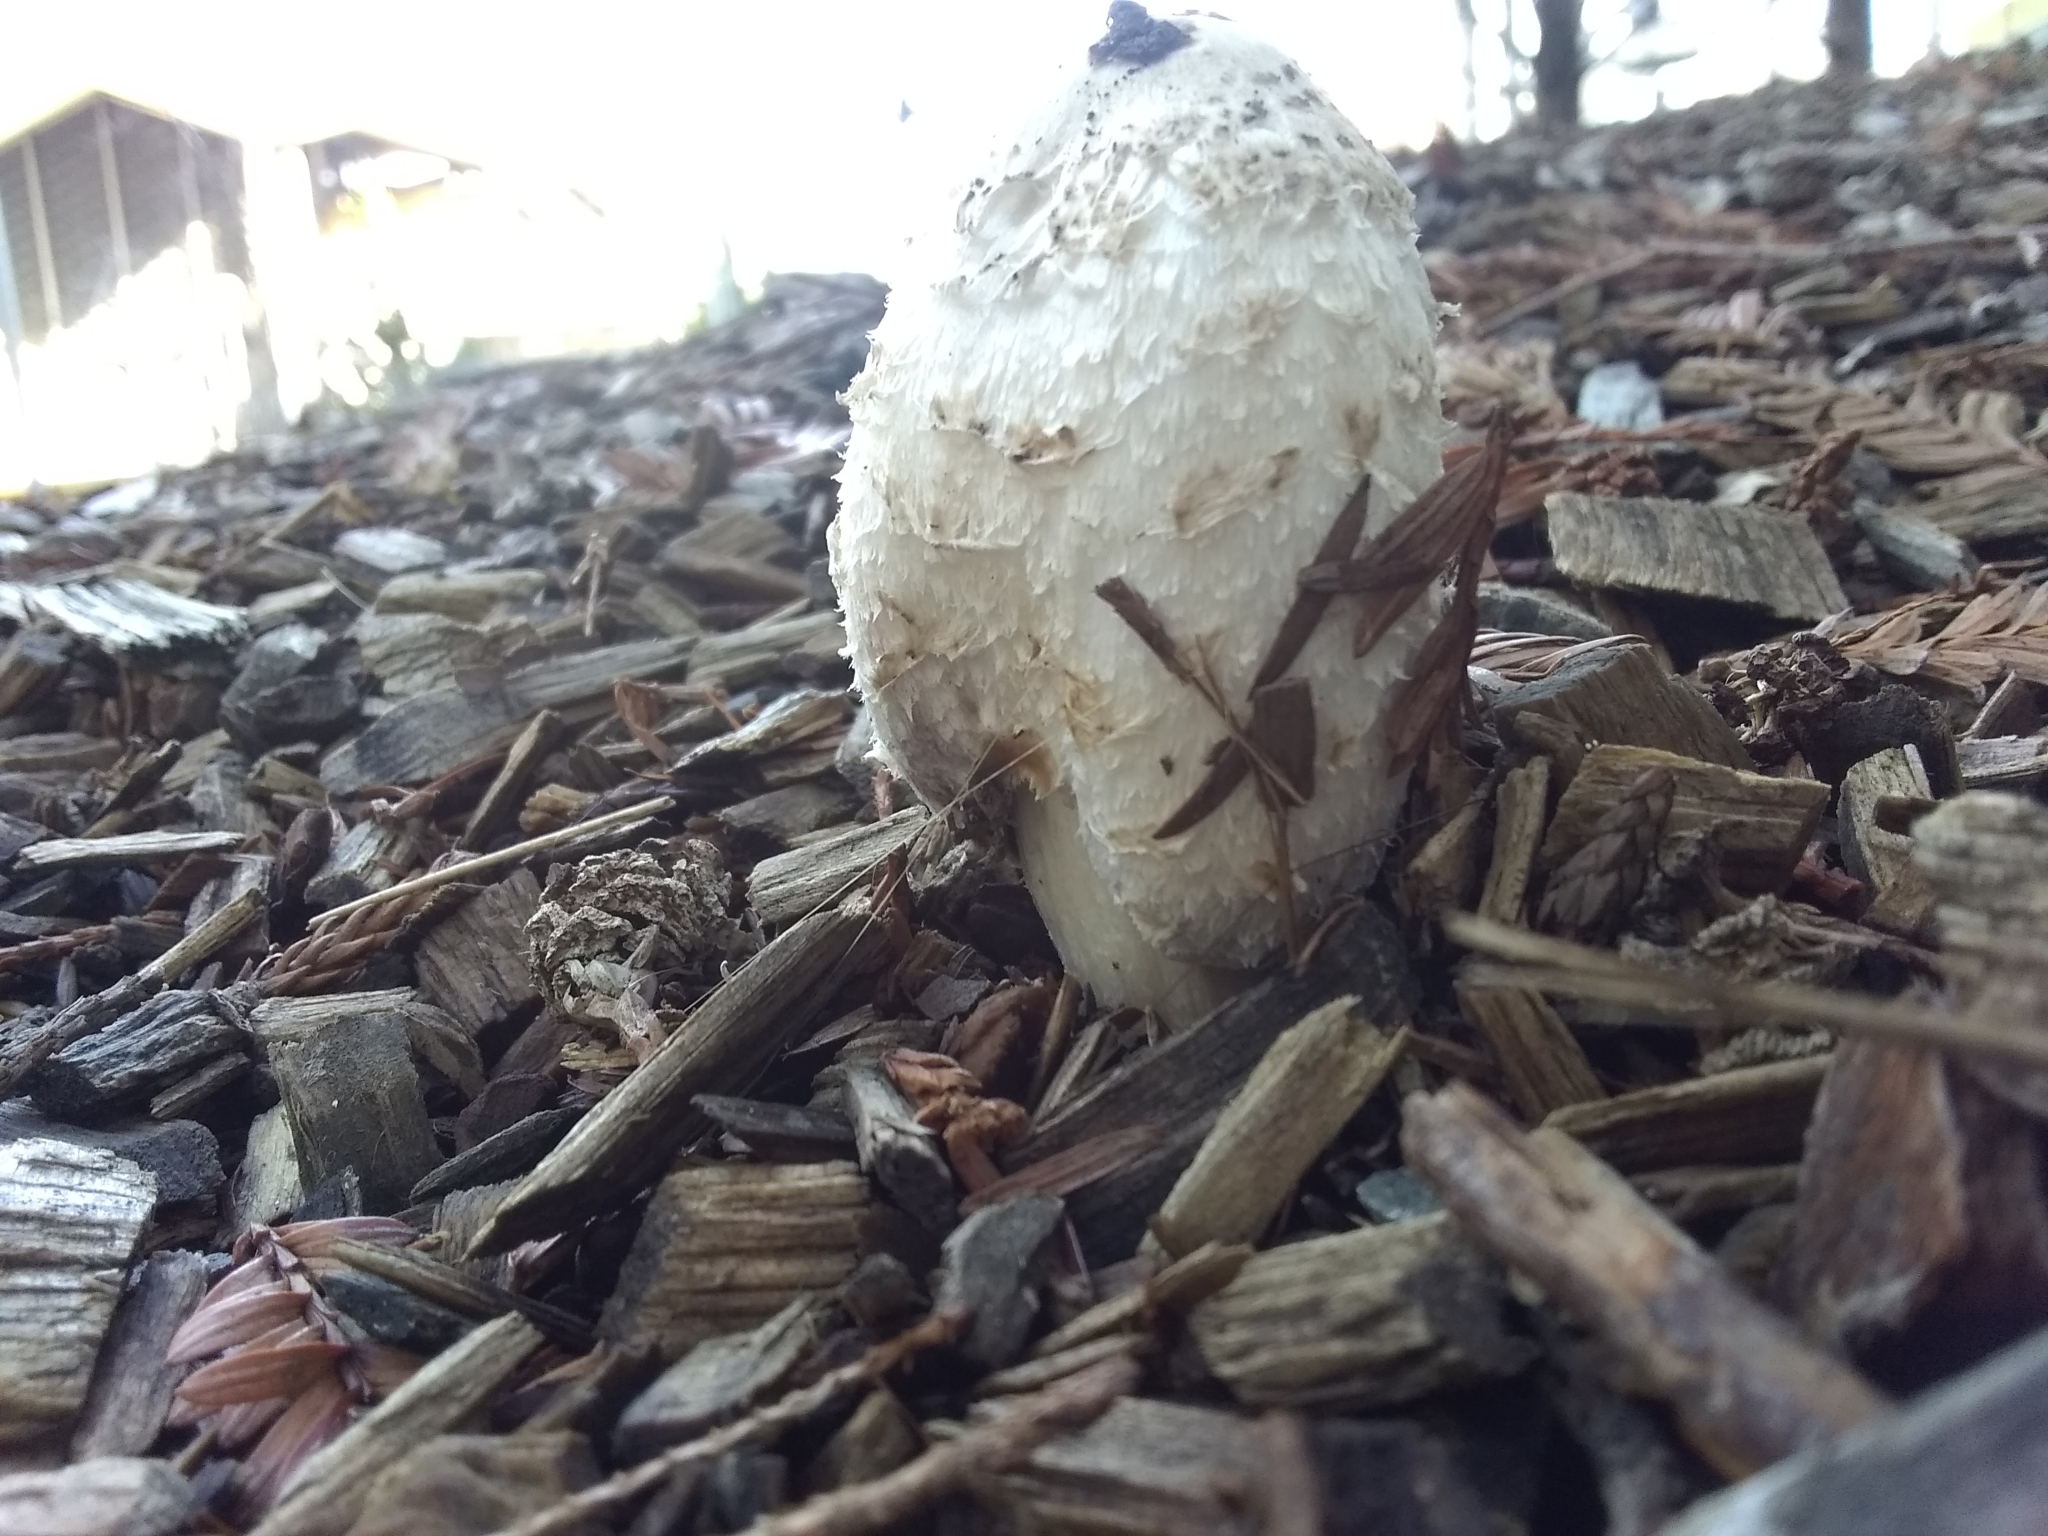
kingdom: Fungi
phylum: Basidiomycota
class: Agaricomycetes
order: Agaricales
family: Agaricaceae
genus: Coprinus
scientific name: Coprinus comatus
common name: Lawyer's wig
